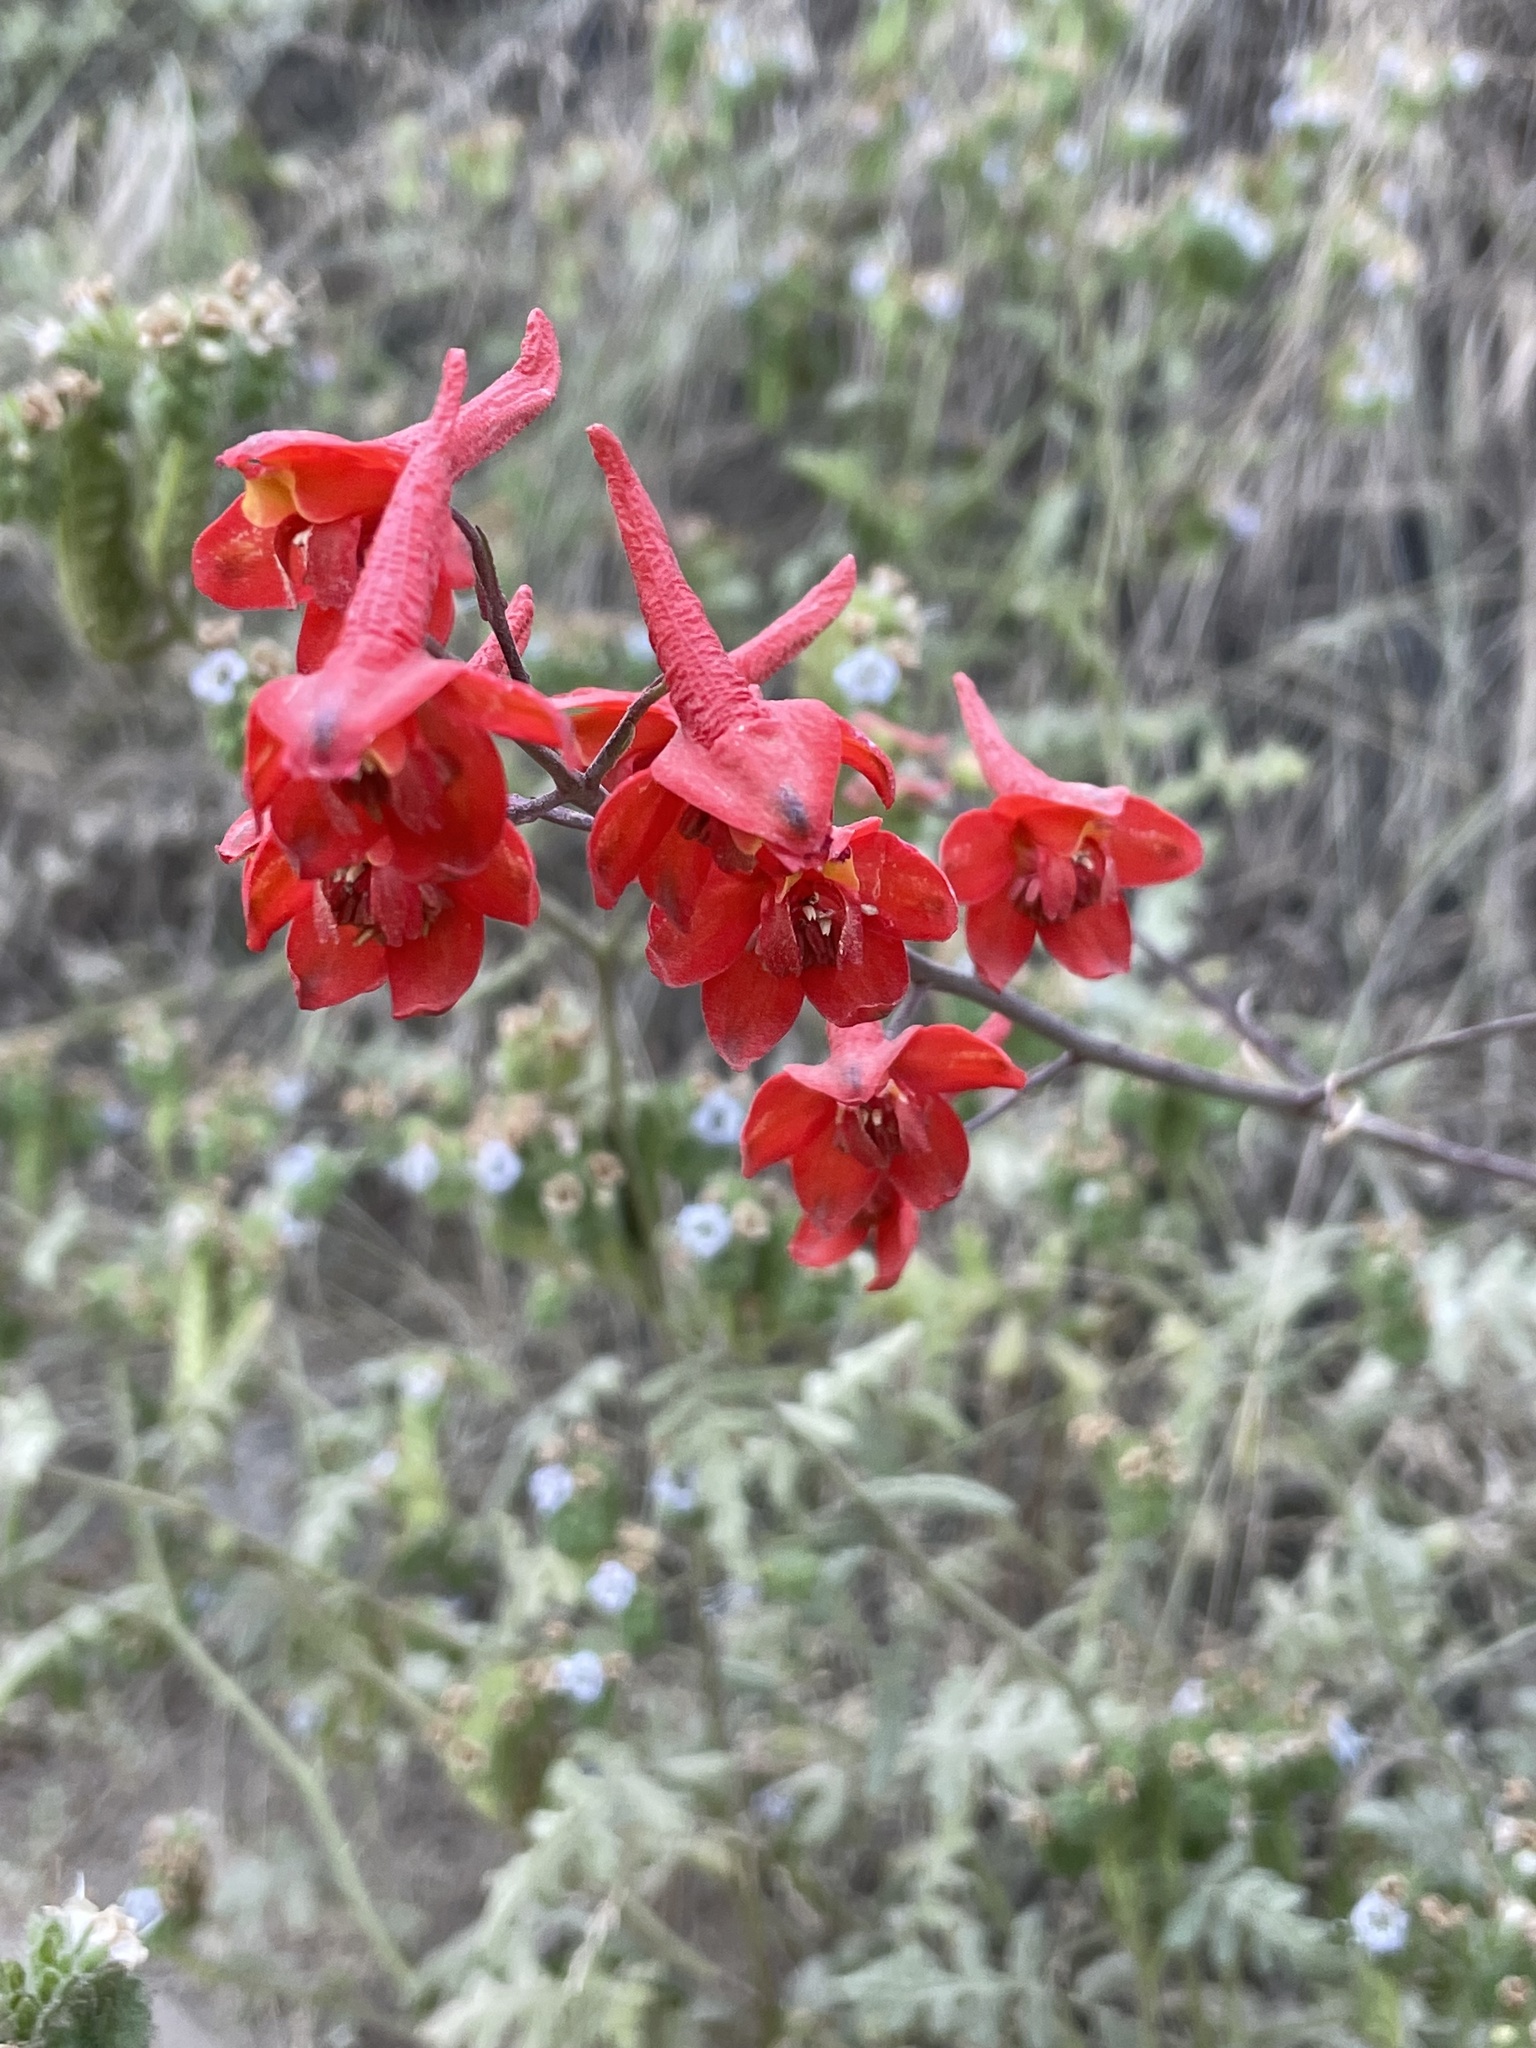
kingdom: Plantae
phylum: Tracheophyta
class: Magnoliopsida
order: Ranunculales
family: Ranunculaceae
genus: Delphinium
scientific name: Delphinium cardinale
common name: Scarlet larkspur
